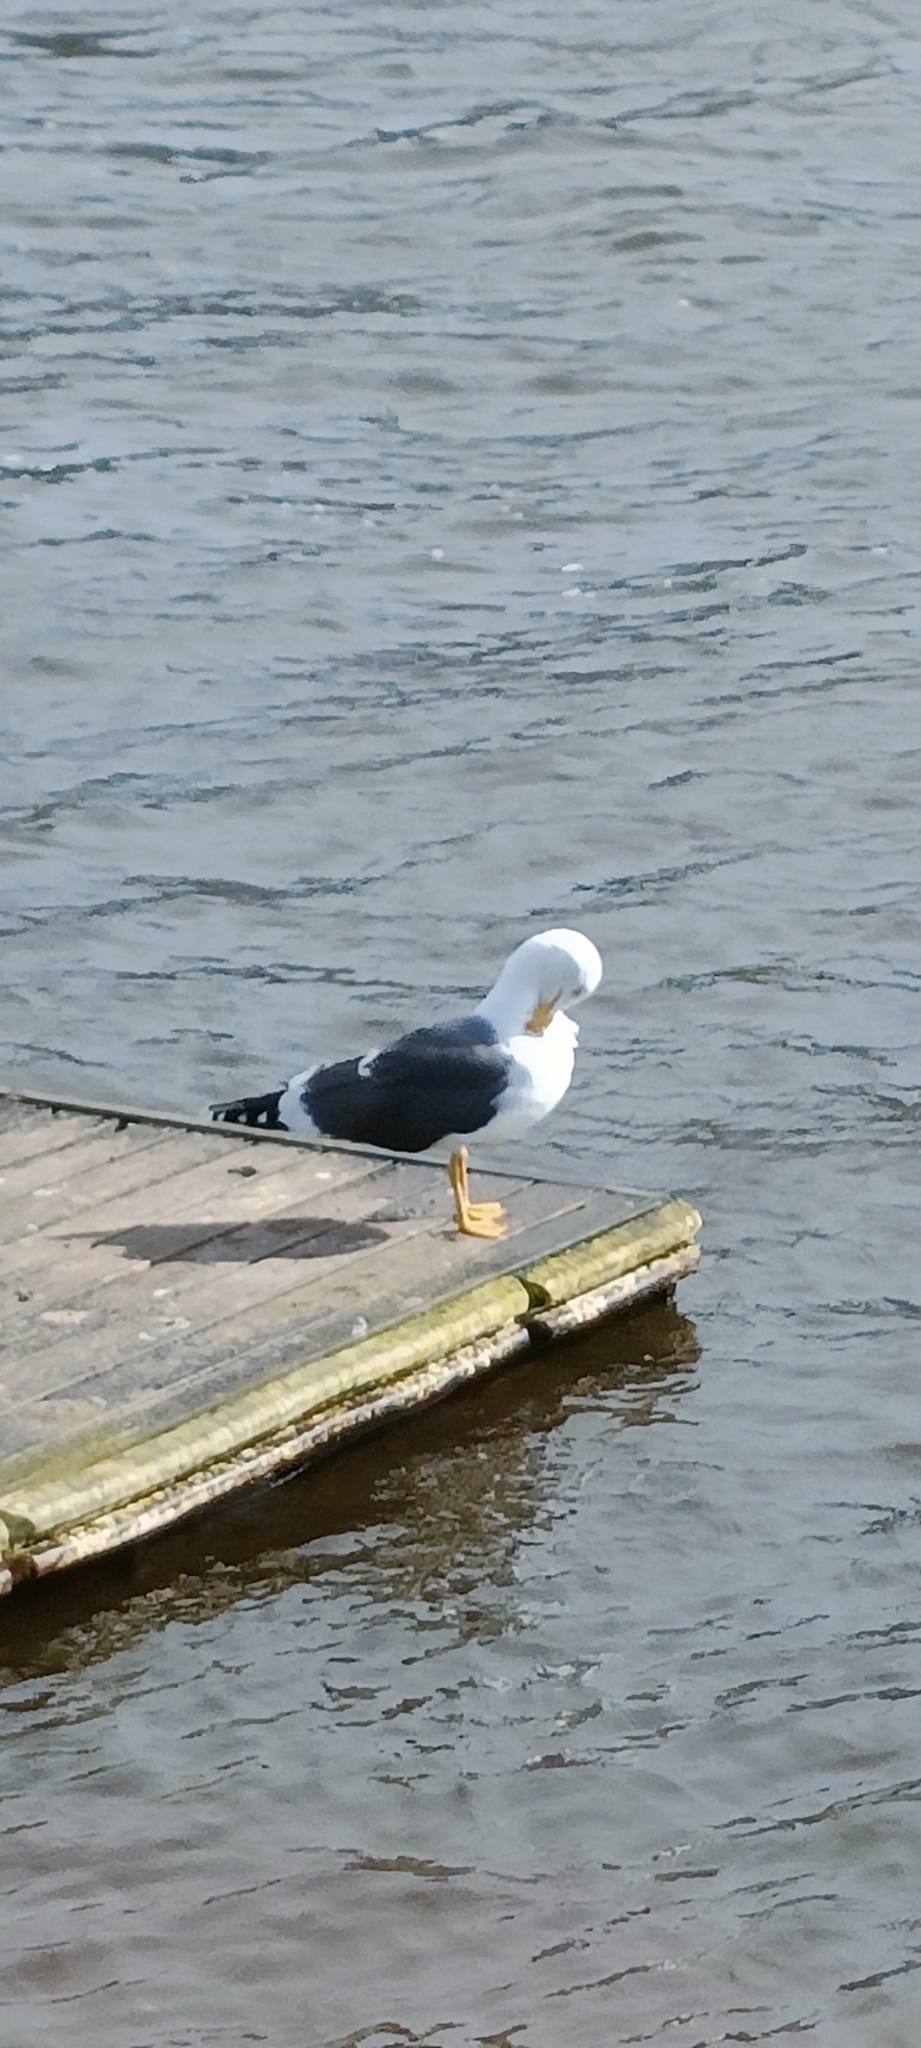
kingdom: Animalia
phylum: Chordata
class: Aves
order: Charadriiformes
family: Laridae
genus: Larus
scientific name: Larus fuscus
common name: Lesser black-backed gull
